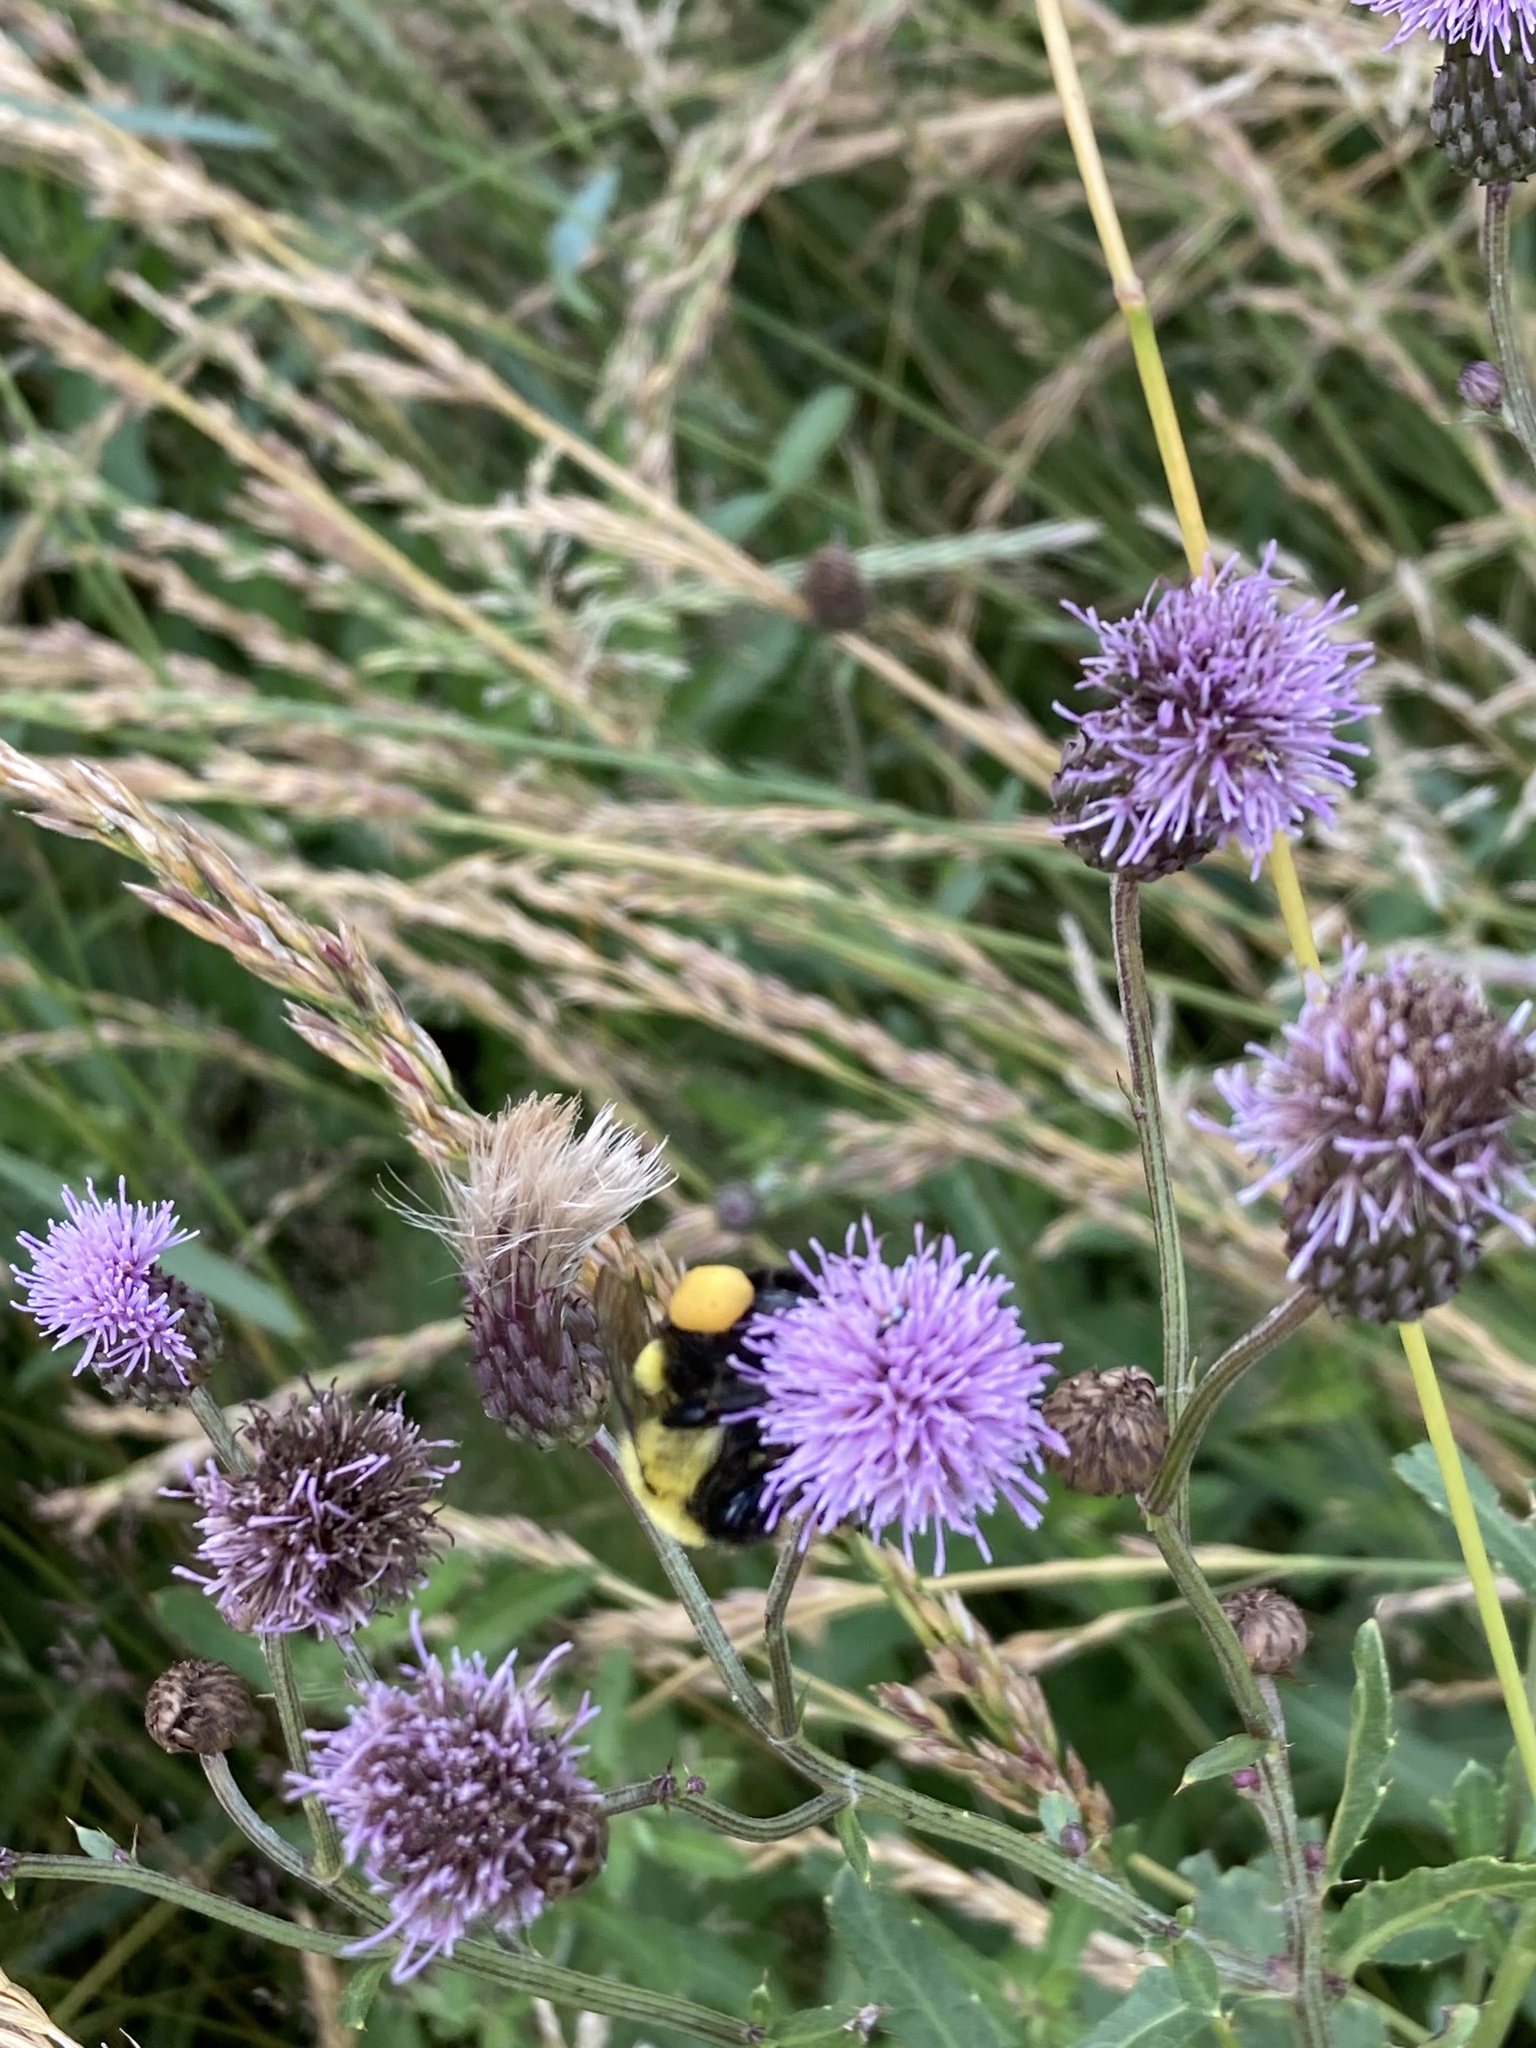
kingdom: Animalia
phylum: Arthropoda
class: Insecta
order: Hymenoptera
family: Apidae
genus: Bombus
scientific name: Bombus impatiens
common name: Common eastern bumble bee
